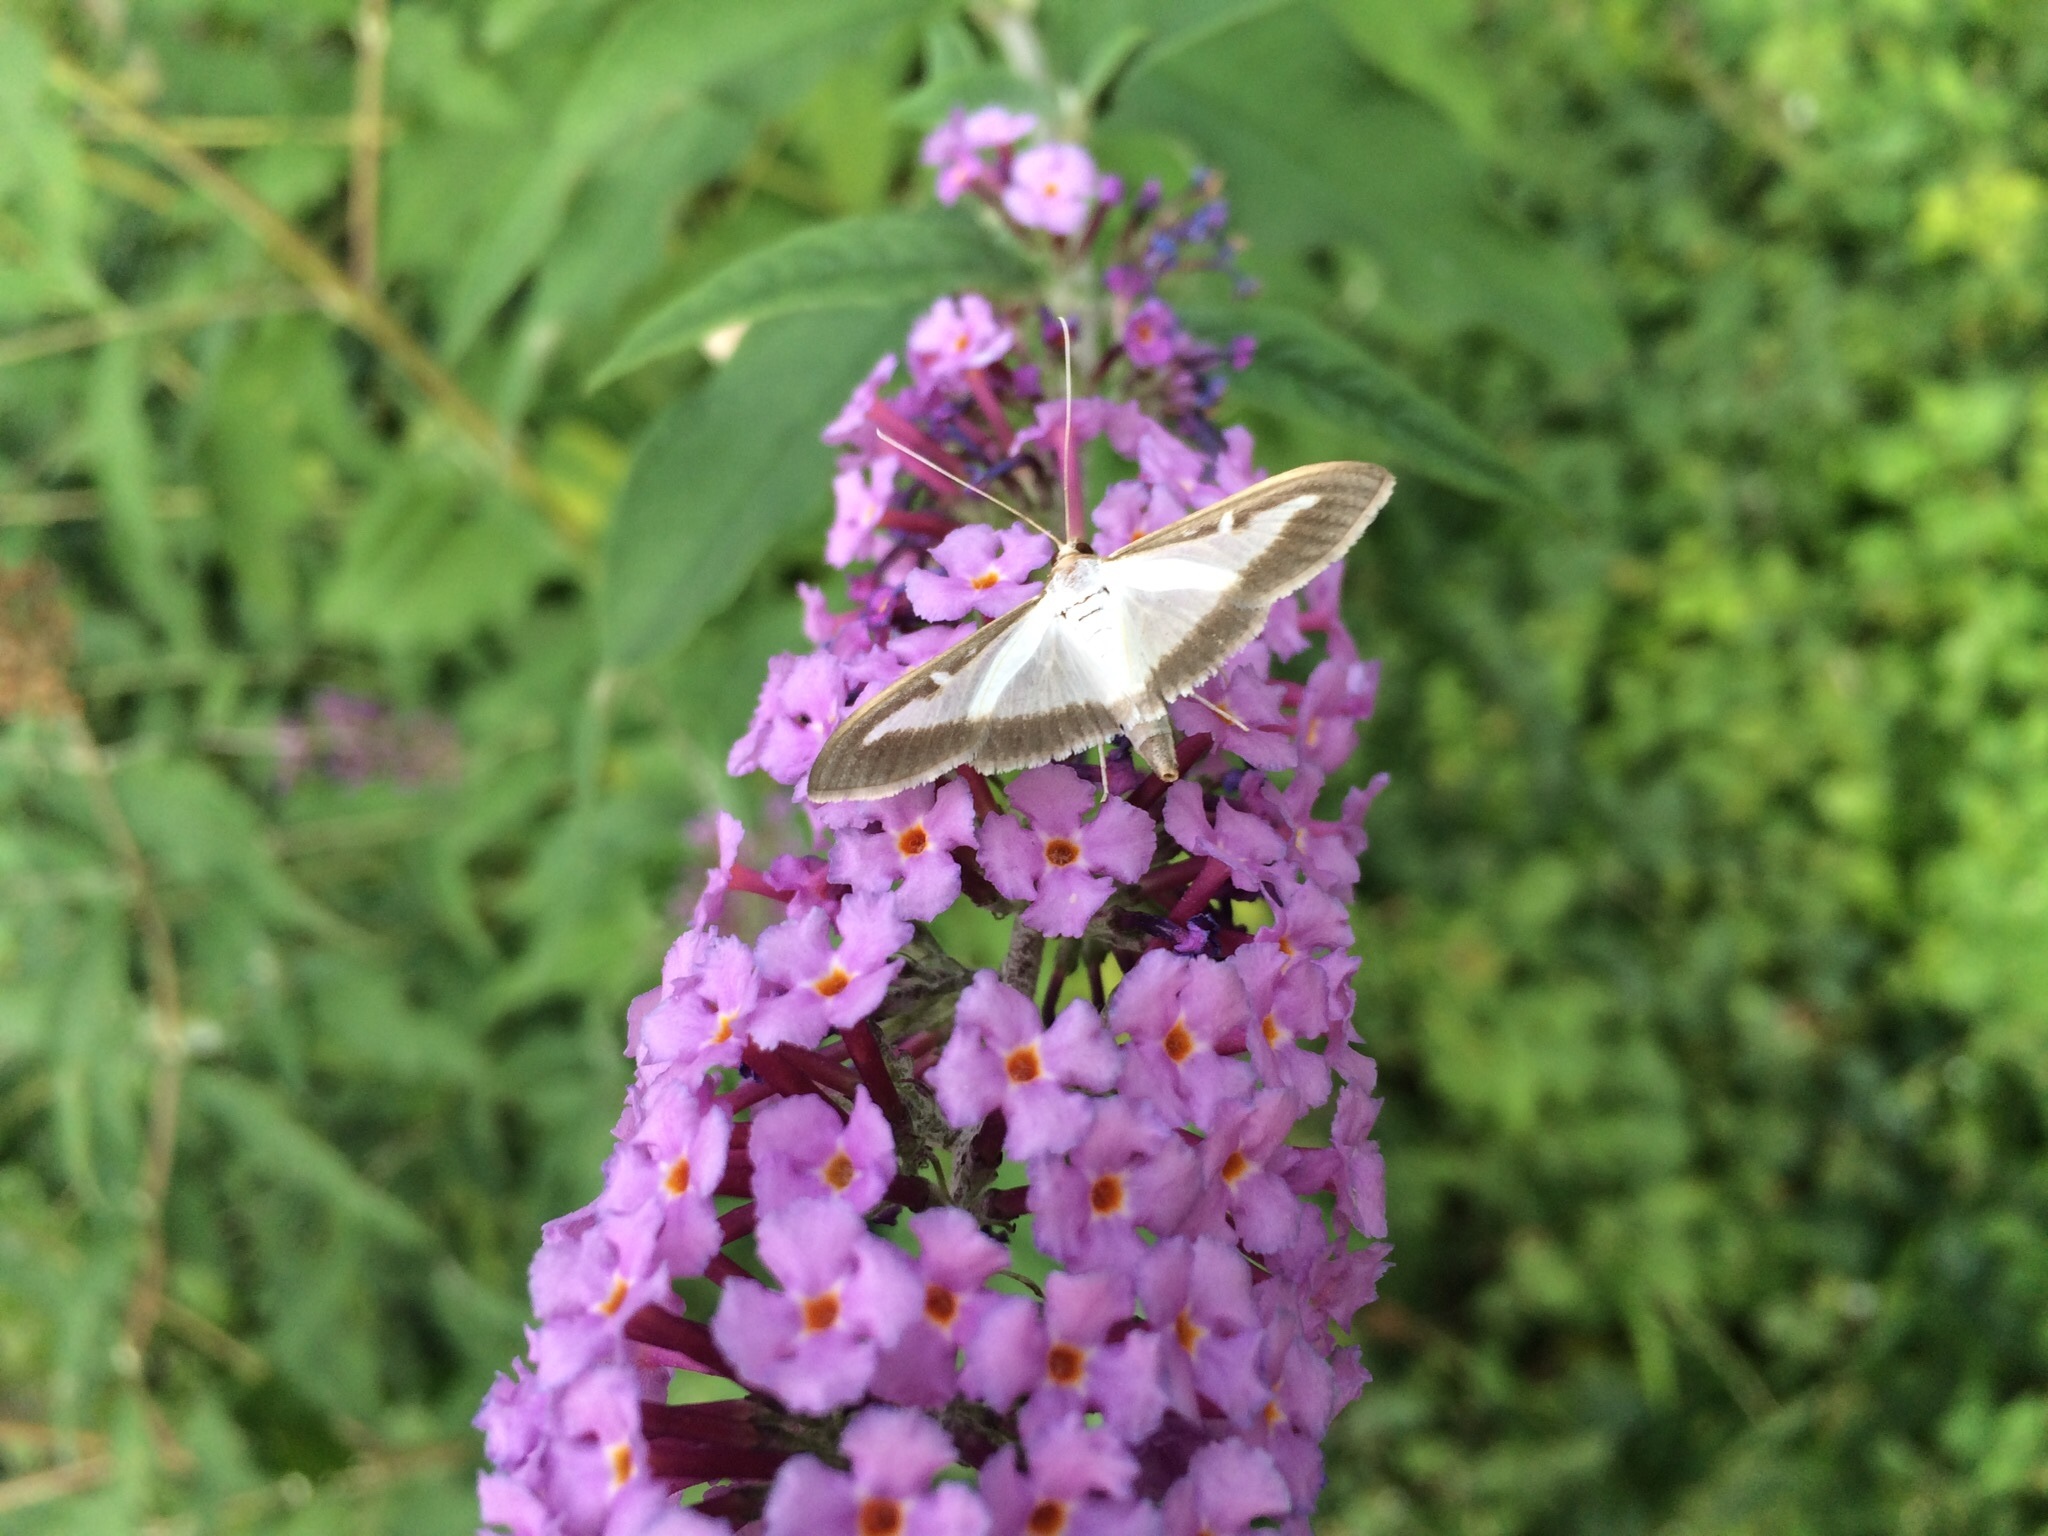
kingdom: Animalia
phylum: Arthropoda
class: Insecta
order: Lepidoptera
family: Crambidae
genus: Cydalima
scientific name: Cydalima perspectalis
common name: Box tree moth
